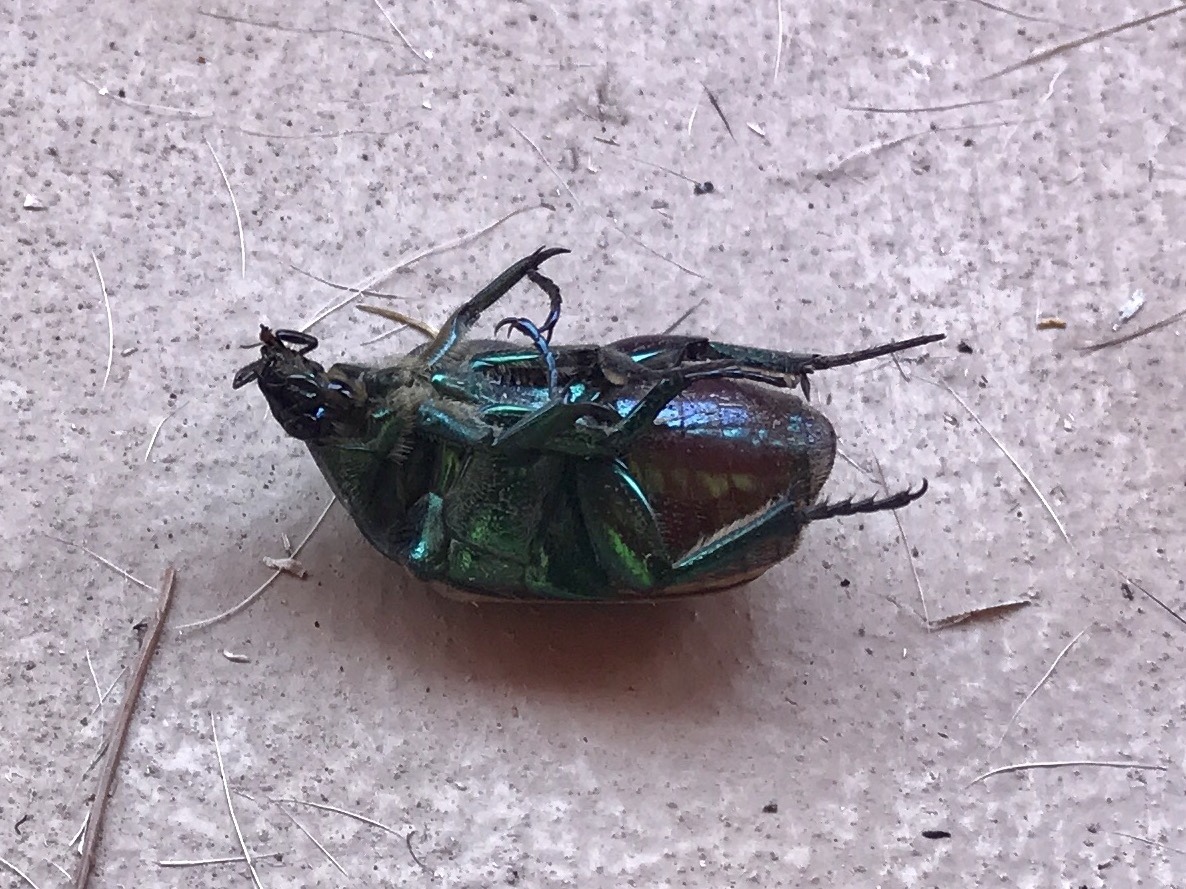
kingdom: Animalia
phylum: Arthropoda
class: Insecta
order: Coleoptera
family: Scarabaeidae
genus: Cotinis
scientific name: Cotinis mutabilis
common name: Figeater beetle
